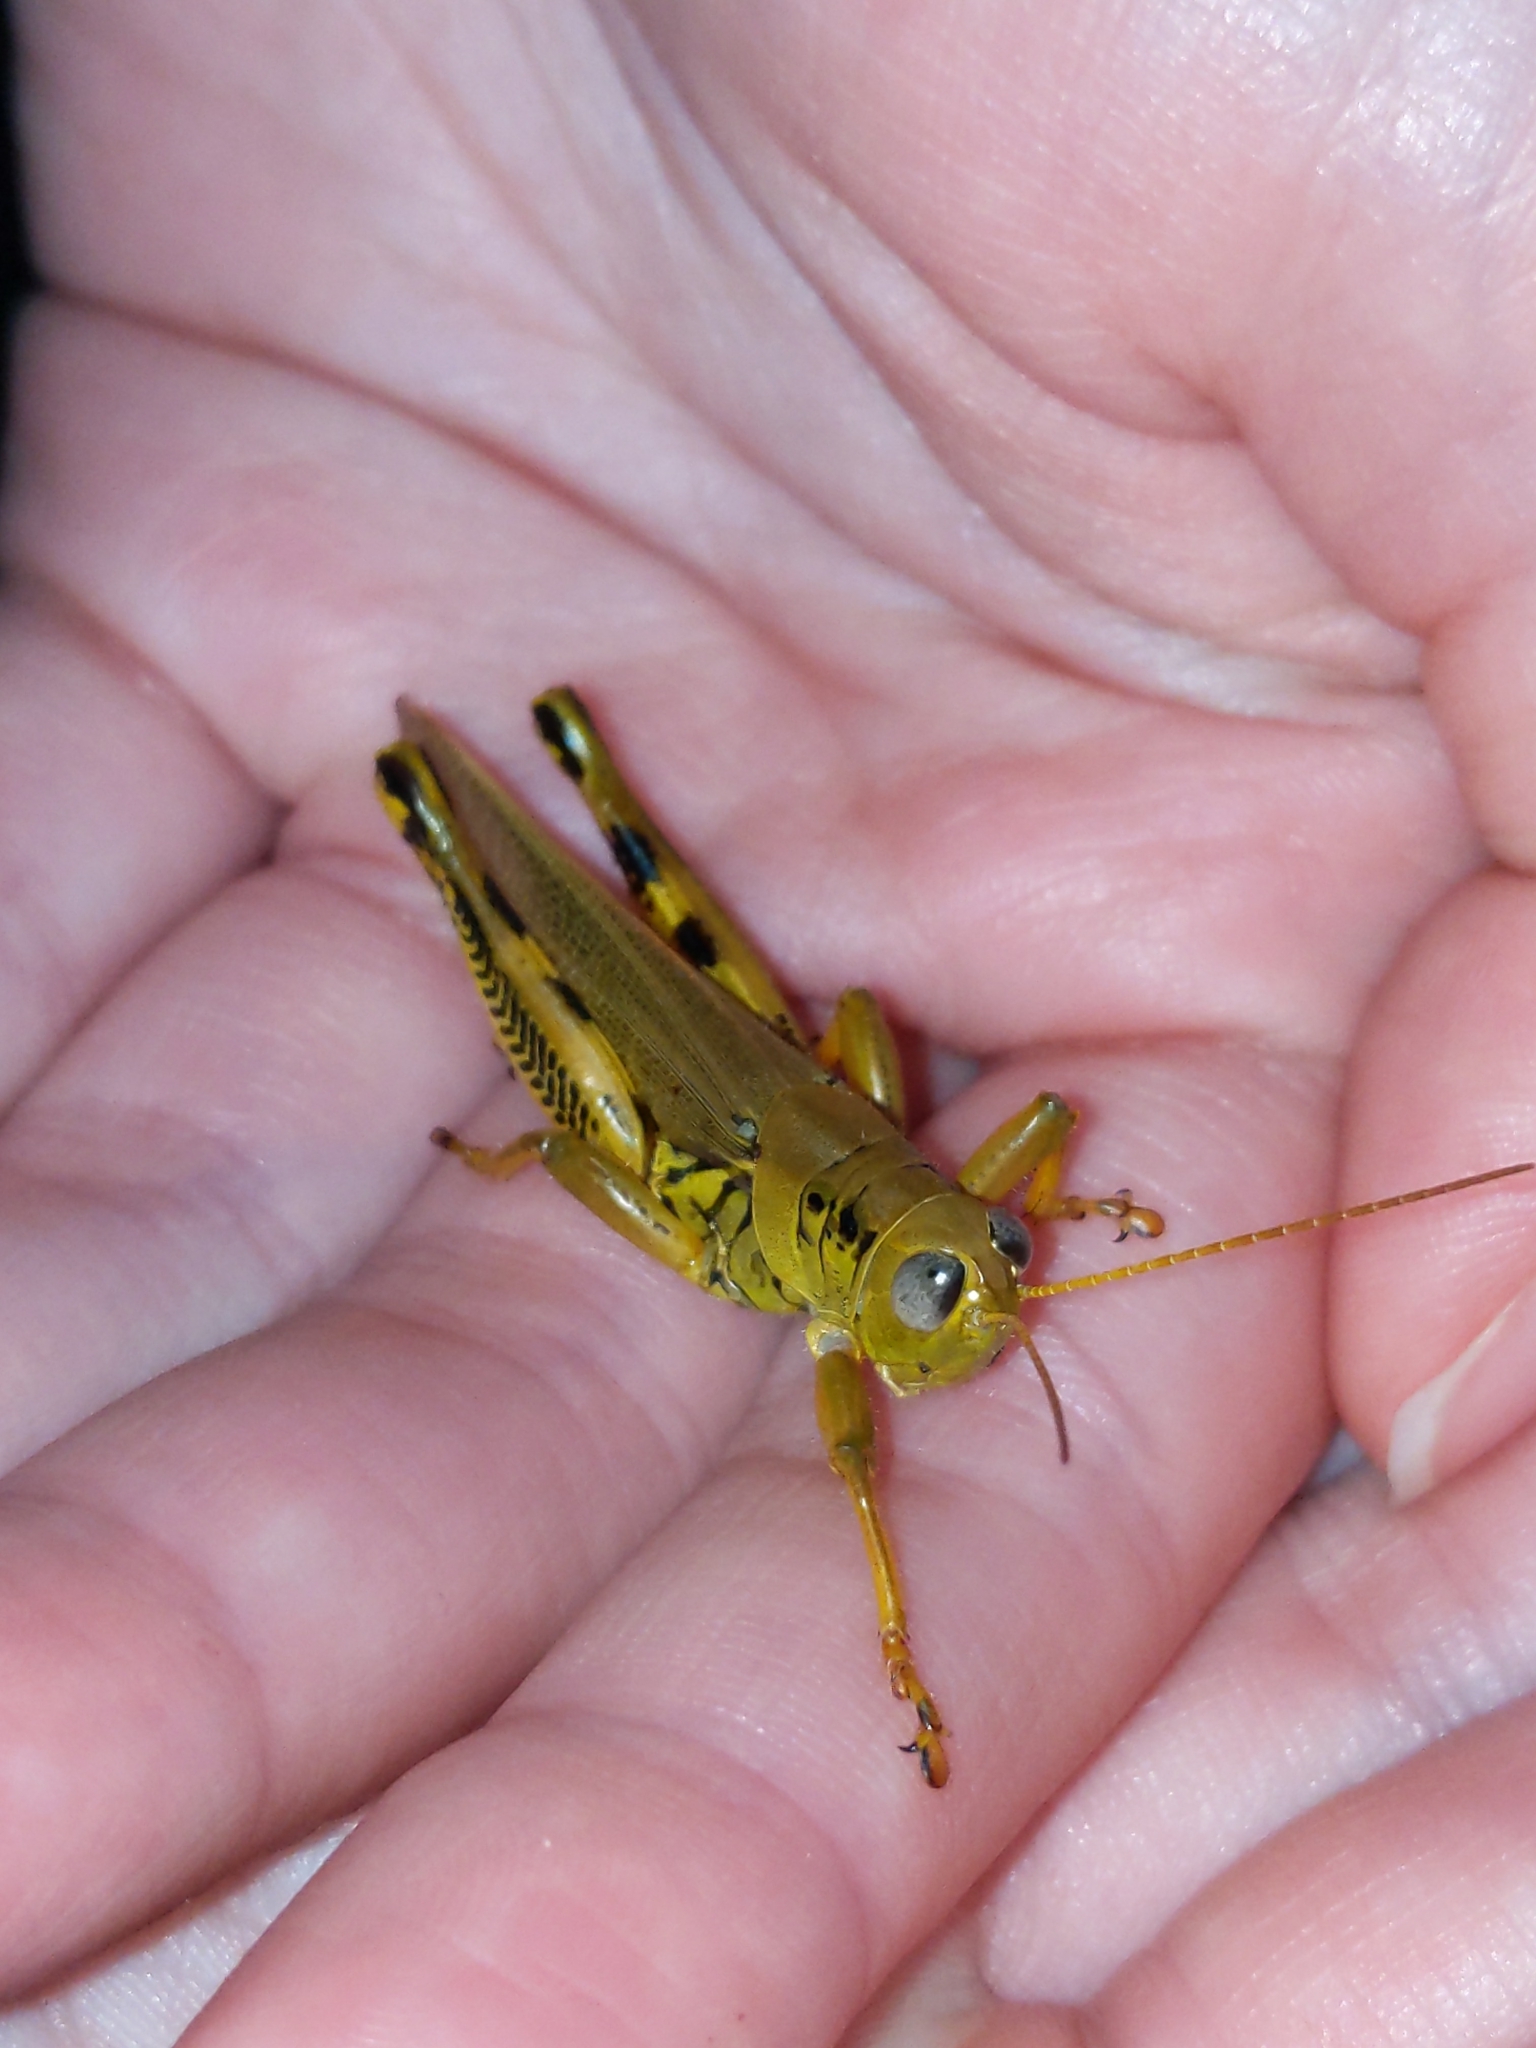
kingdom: Animalia
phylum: Arthropoda
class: Insecta
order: Orthoptera
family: Acrididae
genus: Melanoplus
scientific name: Melanoplus differentialis
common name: Differential grasshopper
